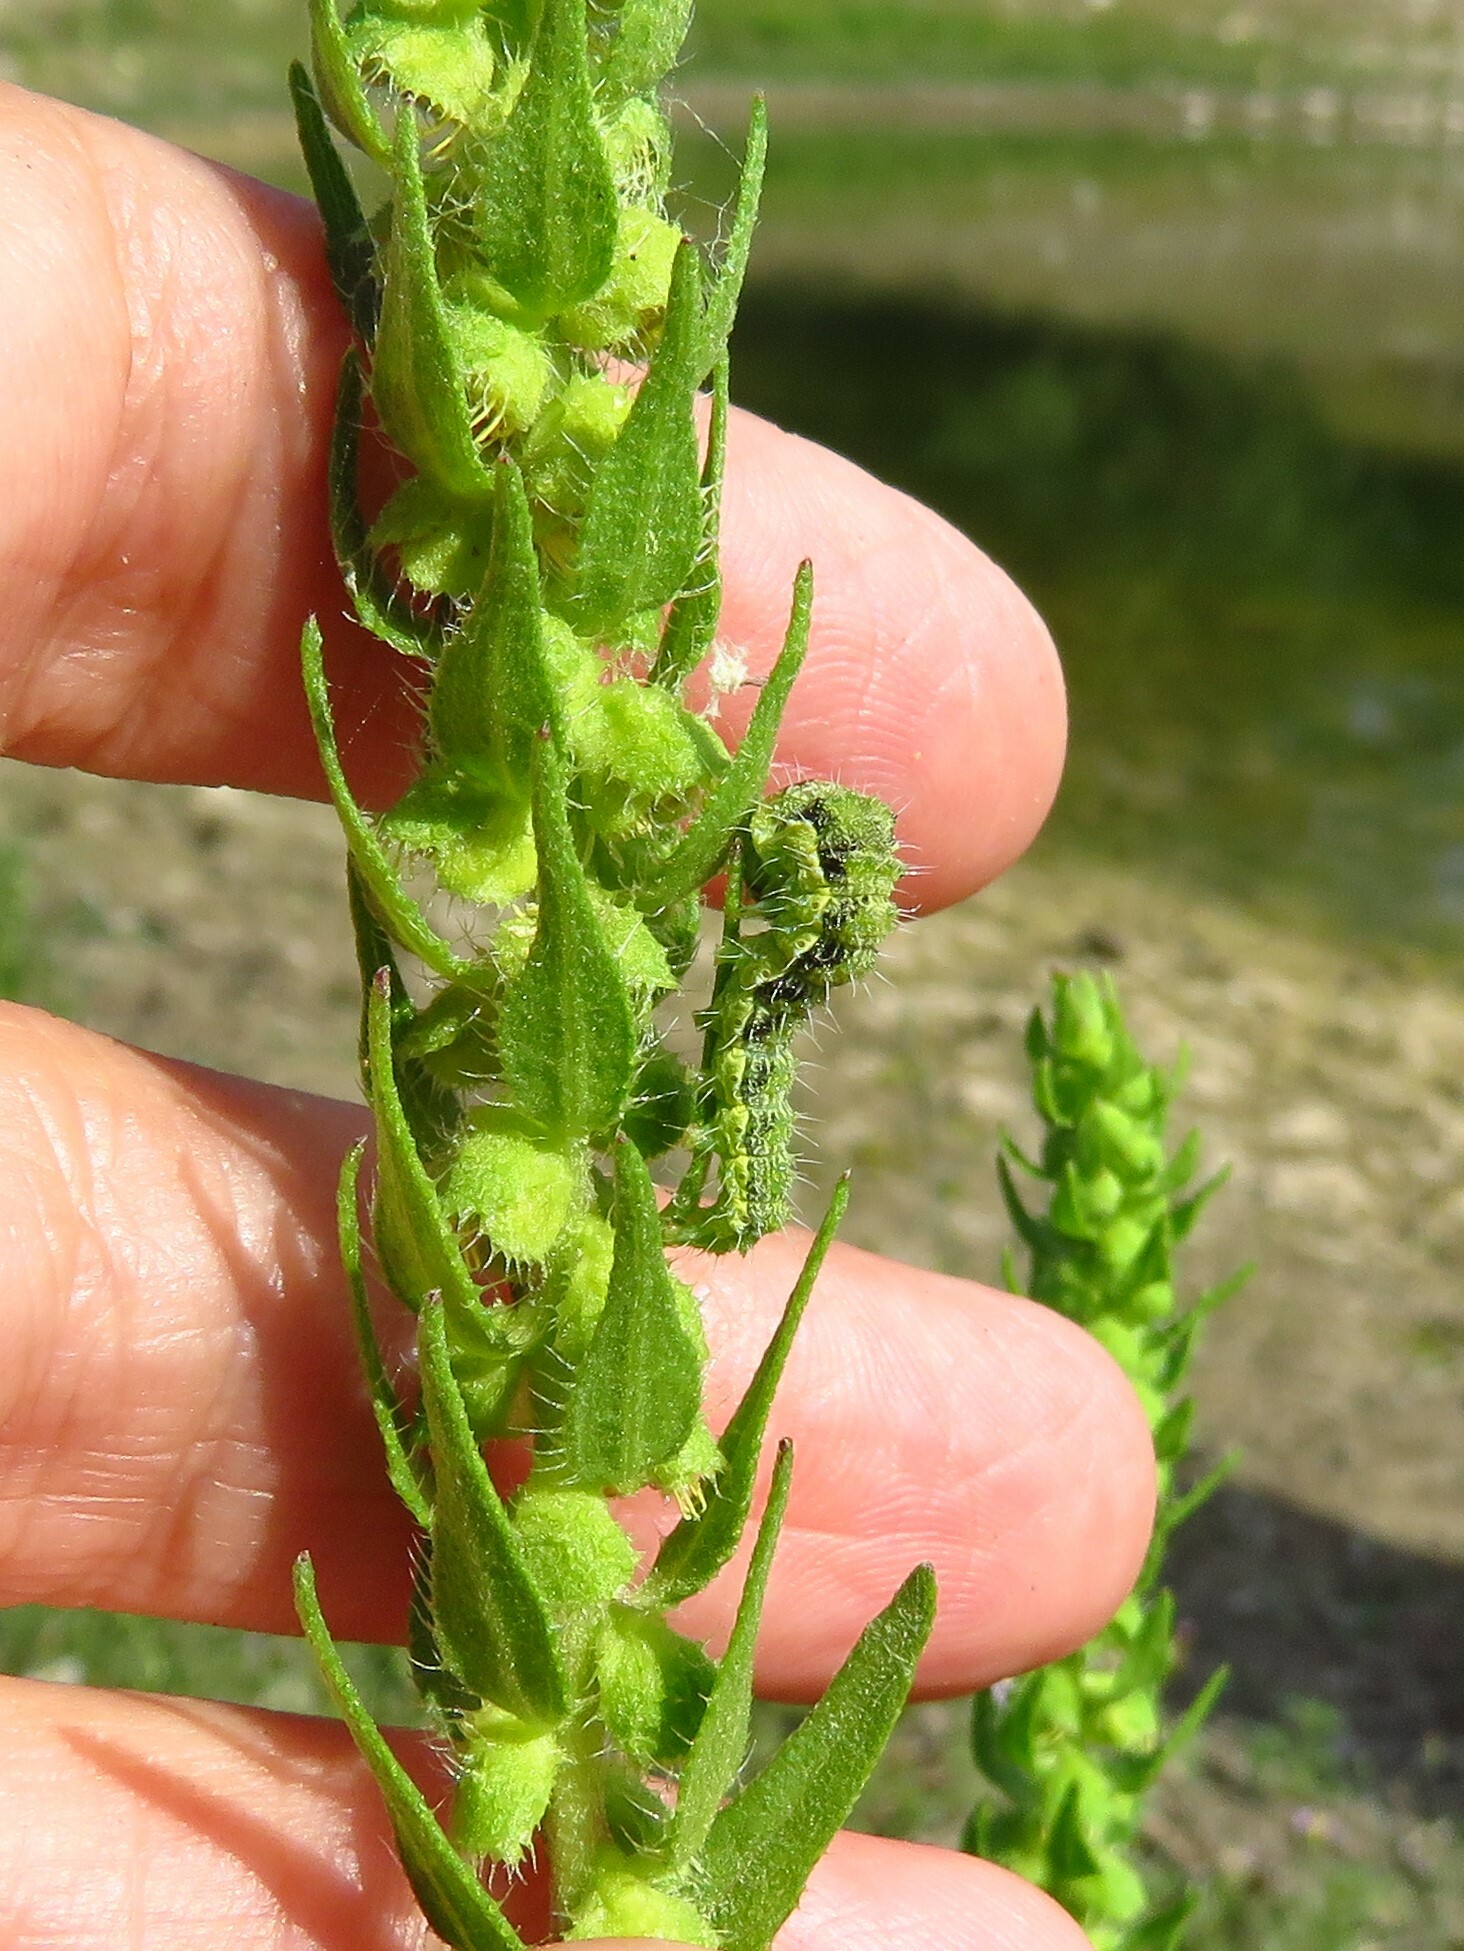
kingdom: Animalia
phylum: Arthropoda
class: Insecta
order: Lepidoptera
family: Noctuidae
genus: Schinia
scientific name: Schinia gracilenta
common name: Slender flower moth
